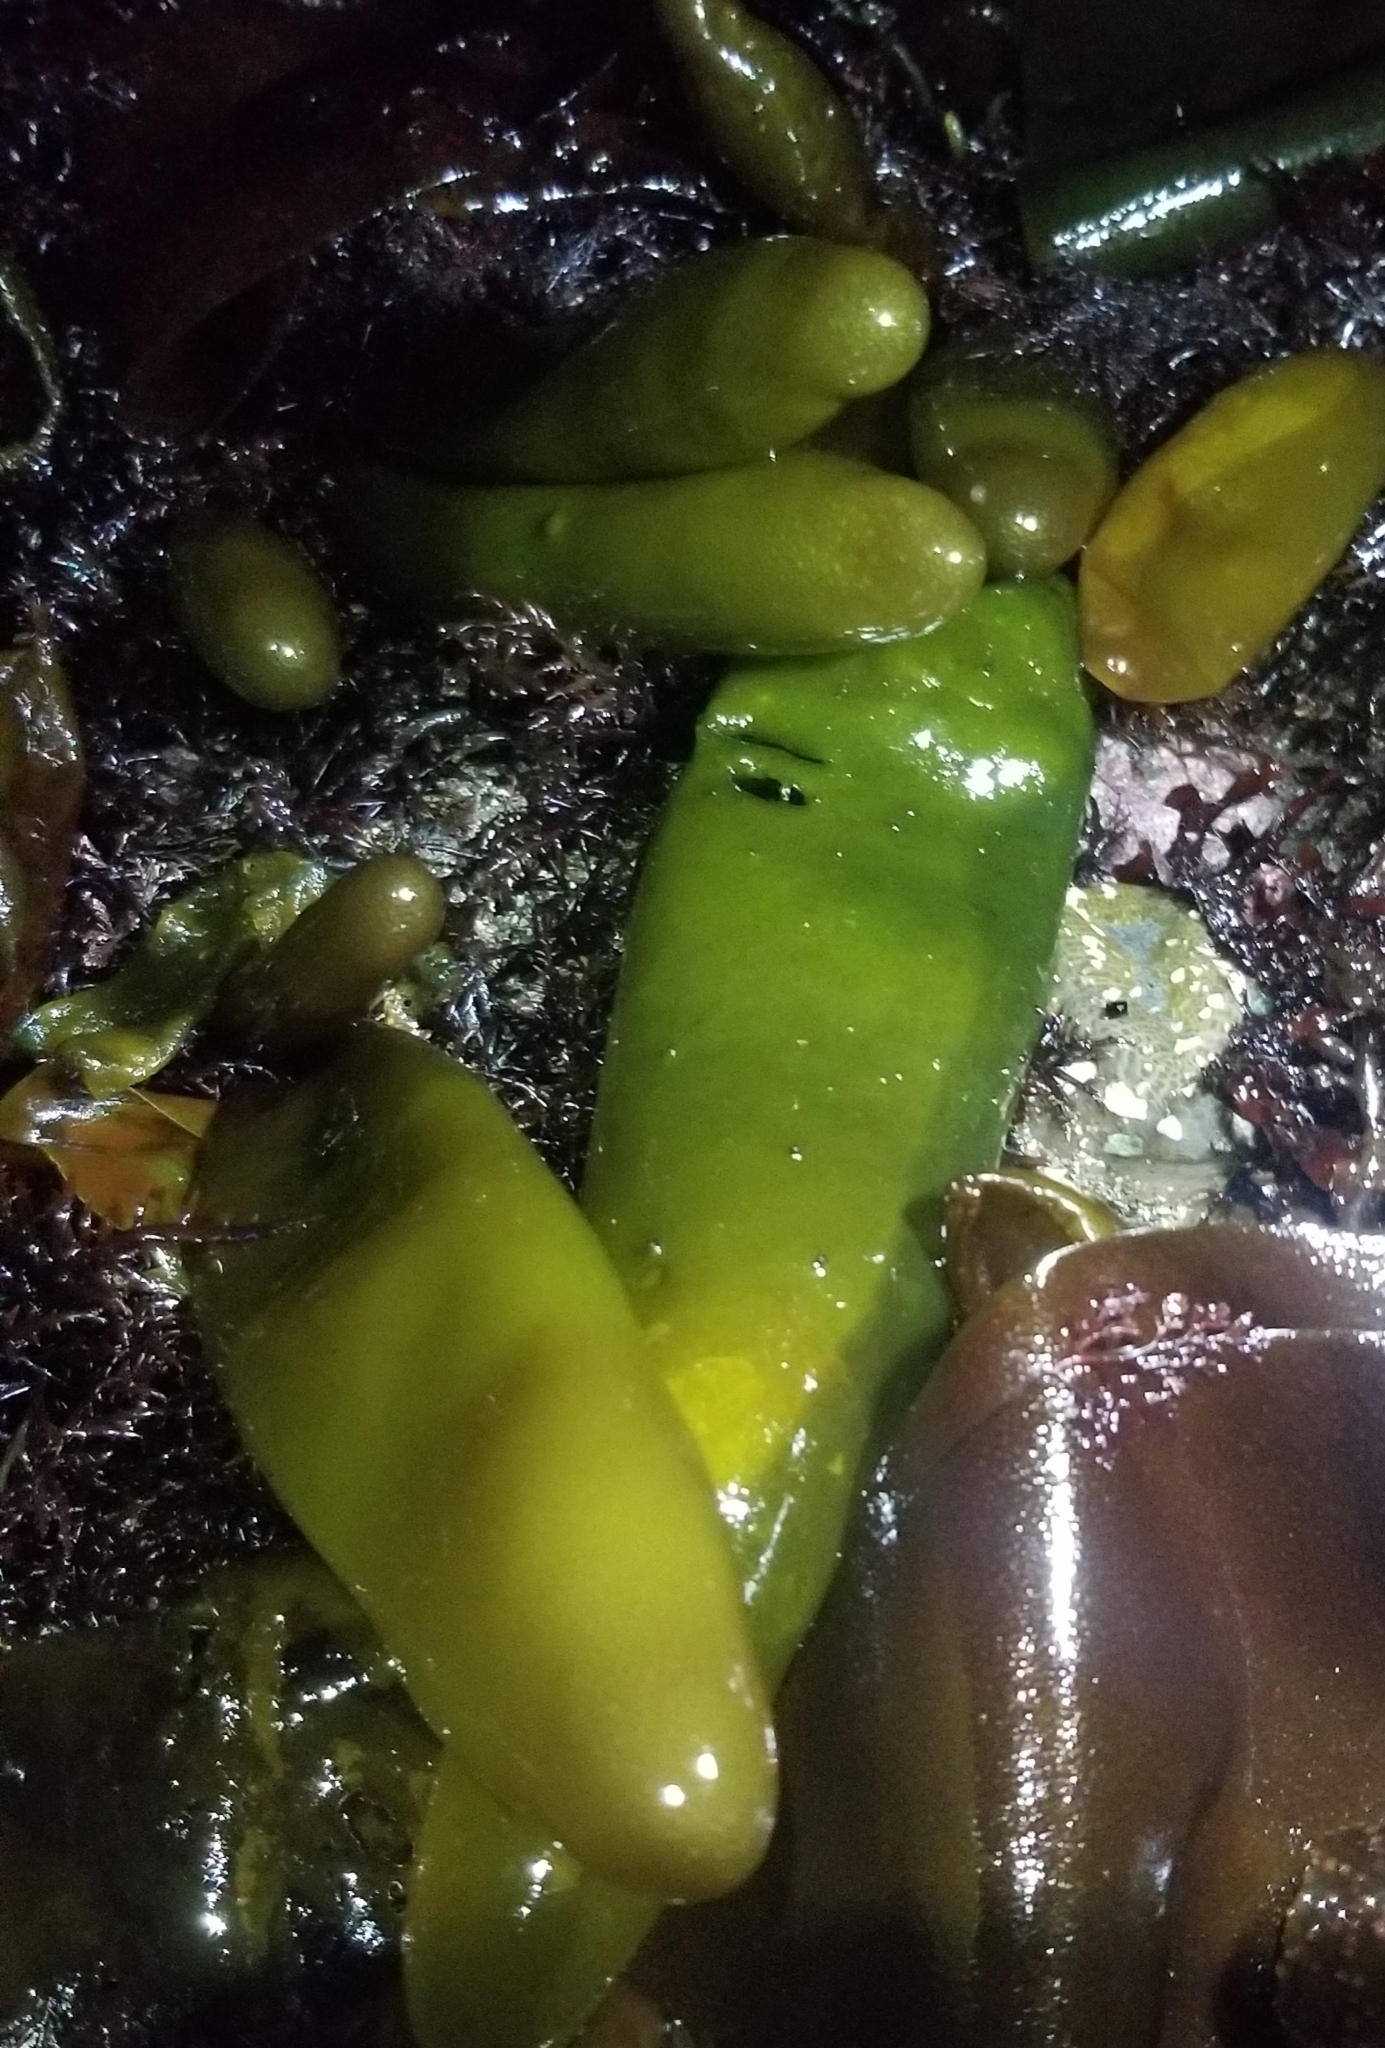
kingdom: Plantae
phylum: Rhodophyta
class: Florideophyceae
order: Palmariales
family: Palmariaceae
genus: Halosaccion
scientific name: Halosaccion glandiforme
